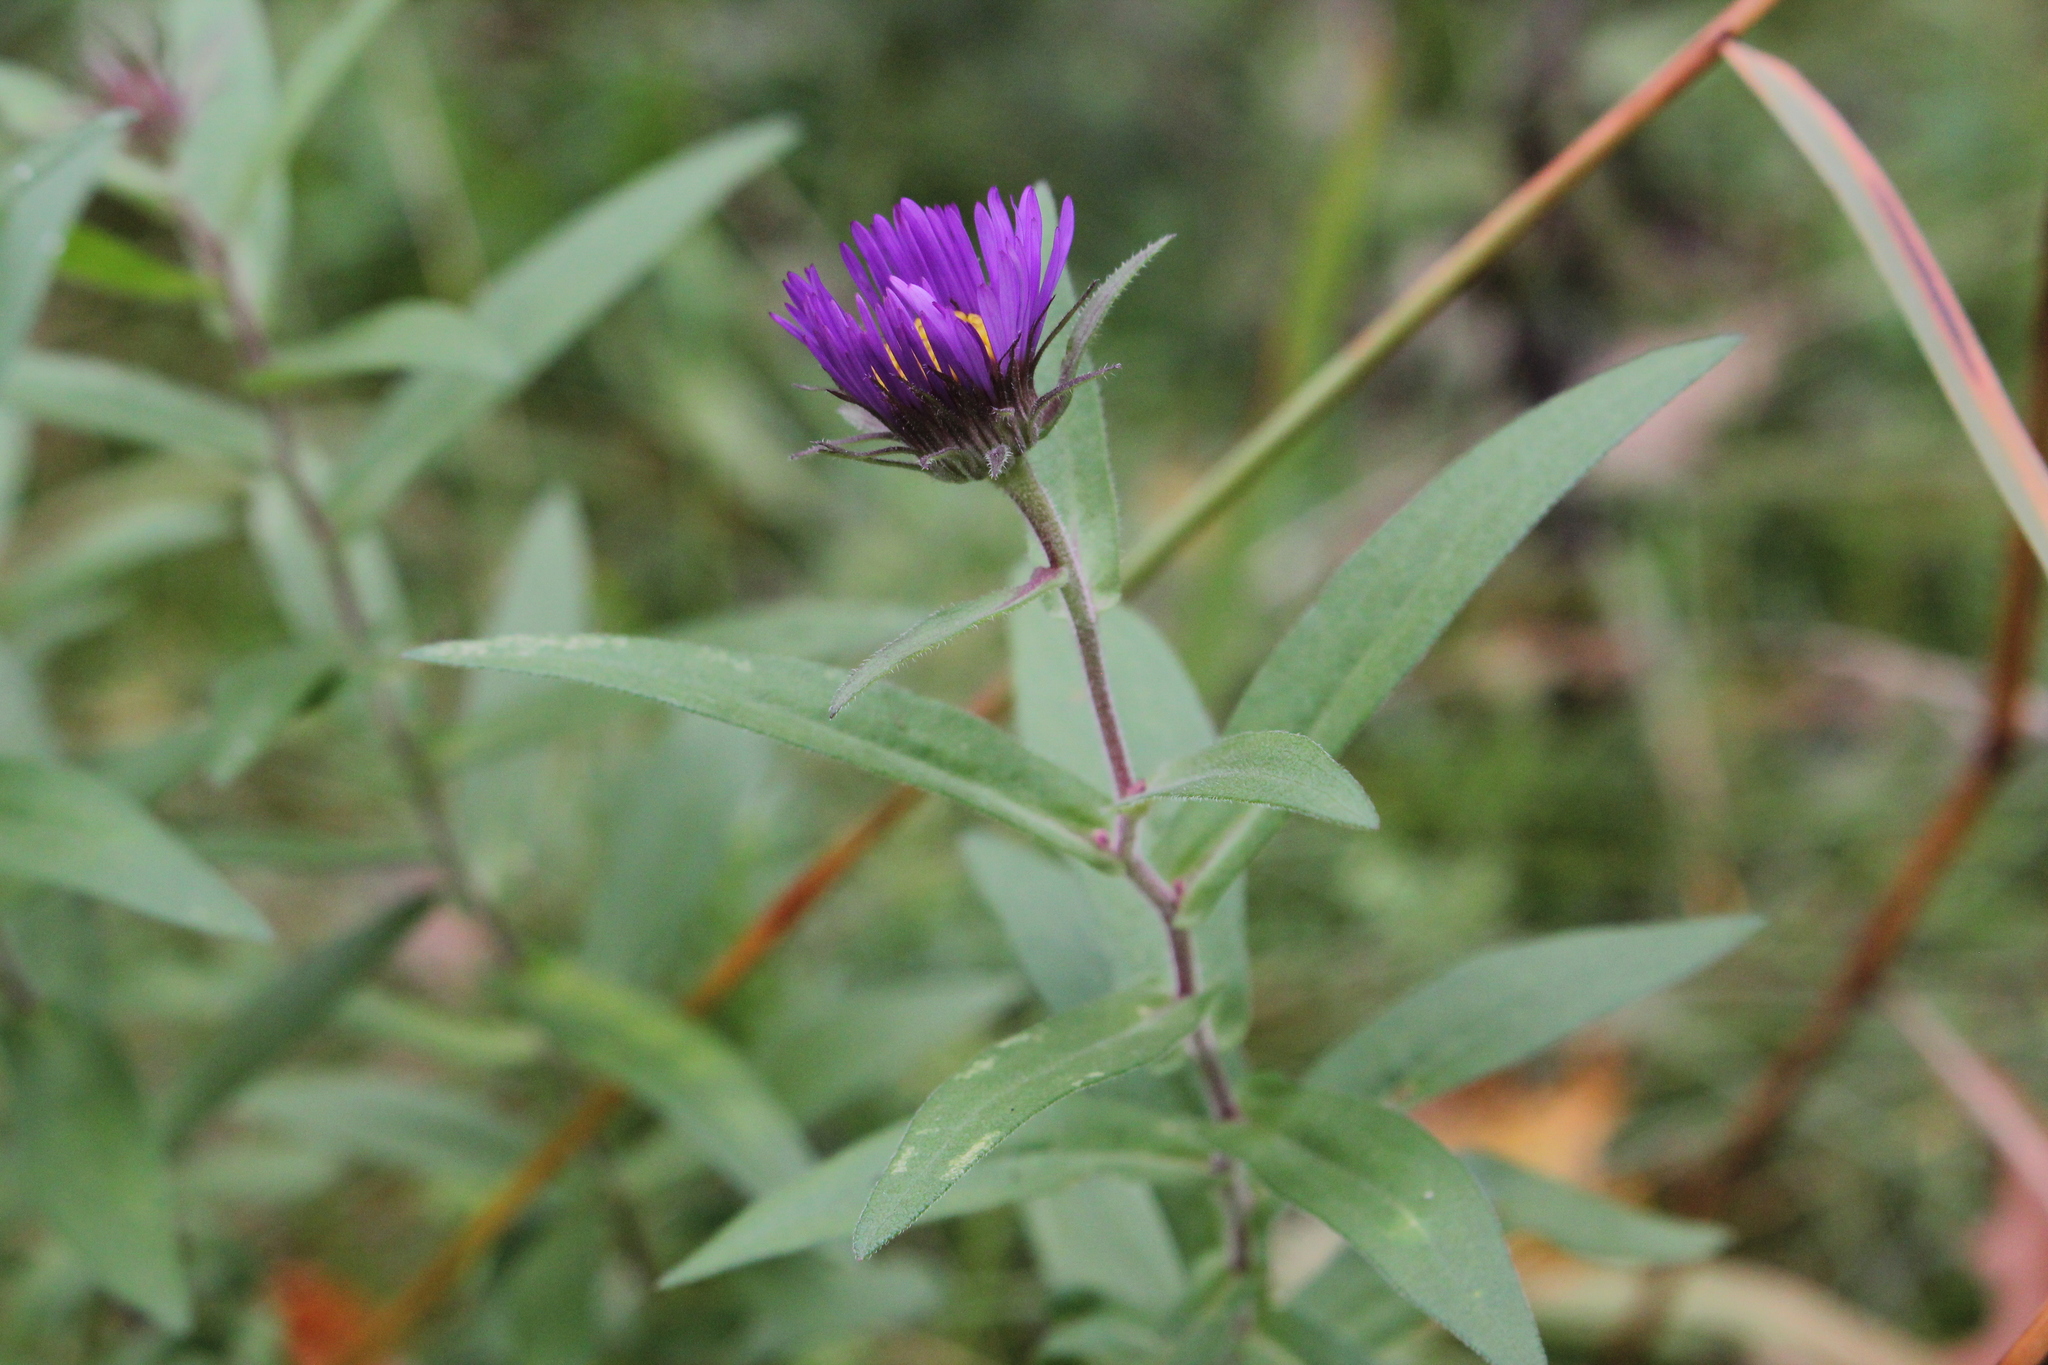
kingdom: Plantae
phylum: Tracheophyta
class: Magnoliopsida
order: Asterales
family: Asteraceae
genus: Symphyotrichum
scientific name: Symphyotrichum novae-angliae
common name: Michaelmas daisy
